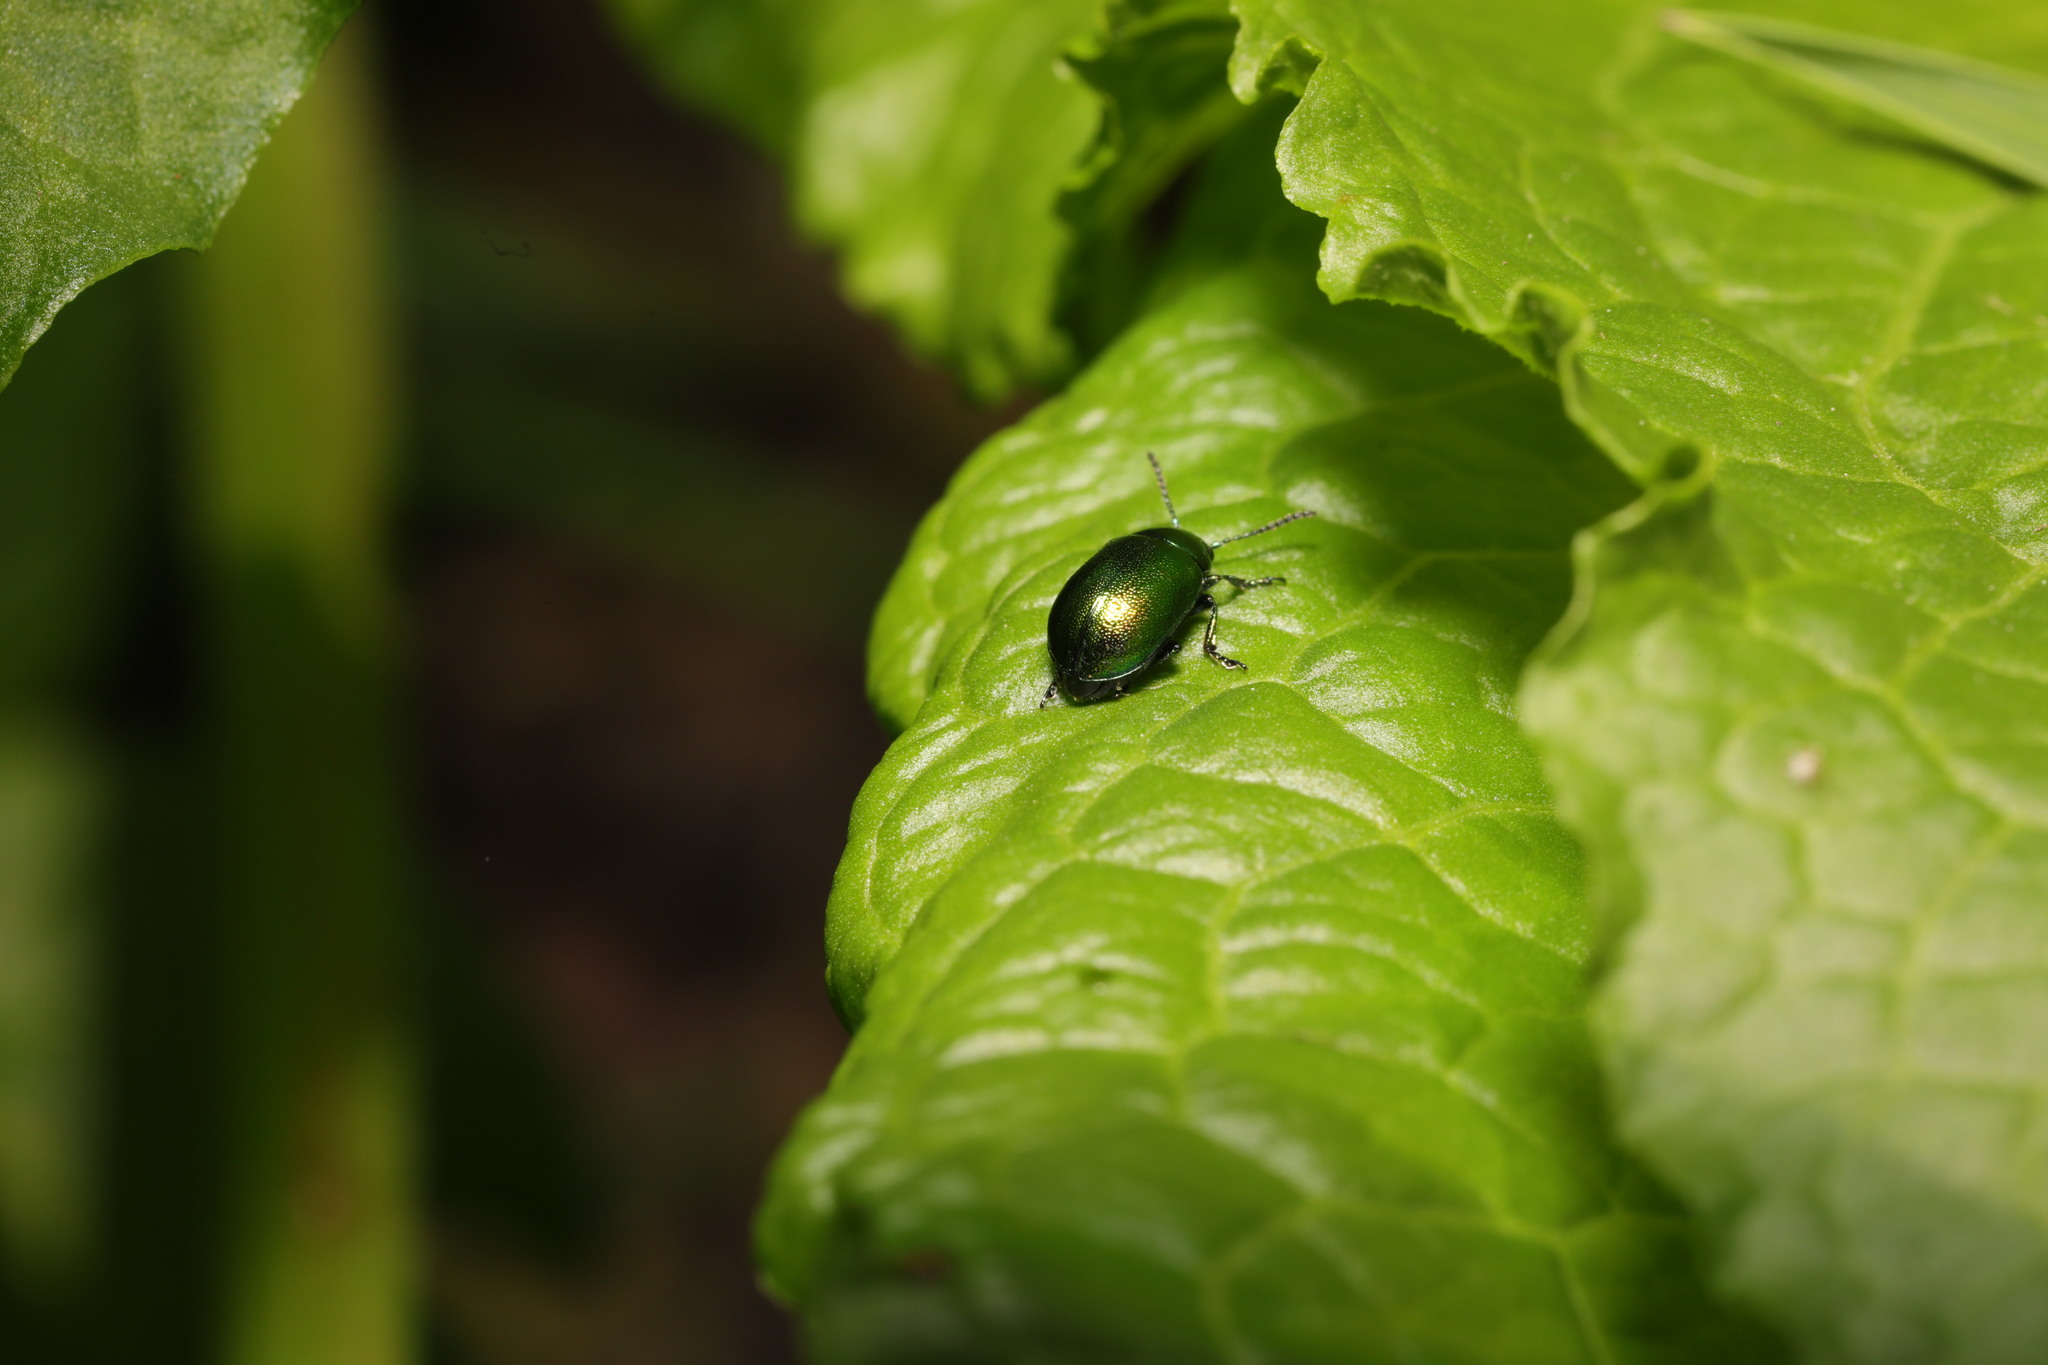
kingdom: Animalia
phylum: Arthropoda
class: Insecta
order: Coleoptera
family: Chrysomelidae
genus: Gastrophysa
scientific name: Gastrophysa viridula
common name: Green dock beetle
